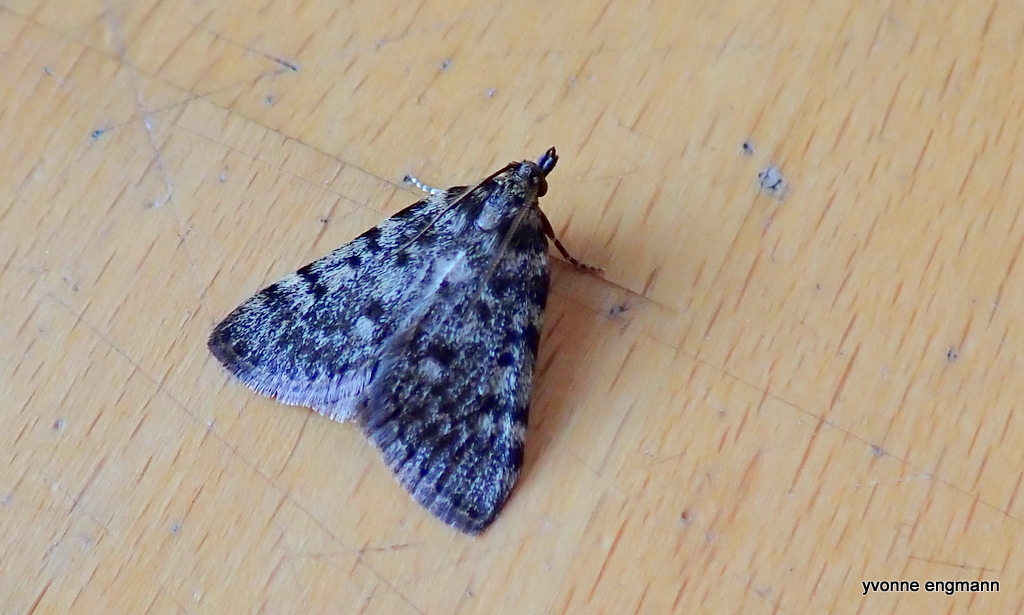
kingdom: Animalia
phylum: Arthropoda
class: Insecta
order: Lepidoptera
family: Pyralidae
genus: Aglossa
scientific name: Aglossa pinguinalis
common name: Large tabby
